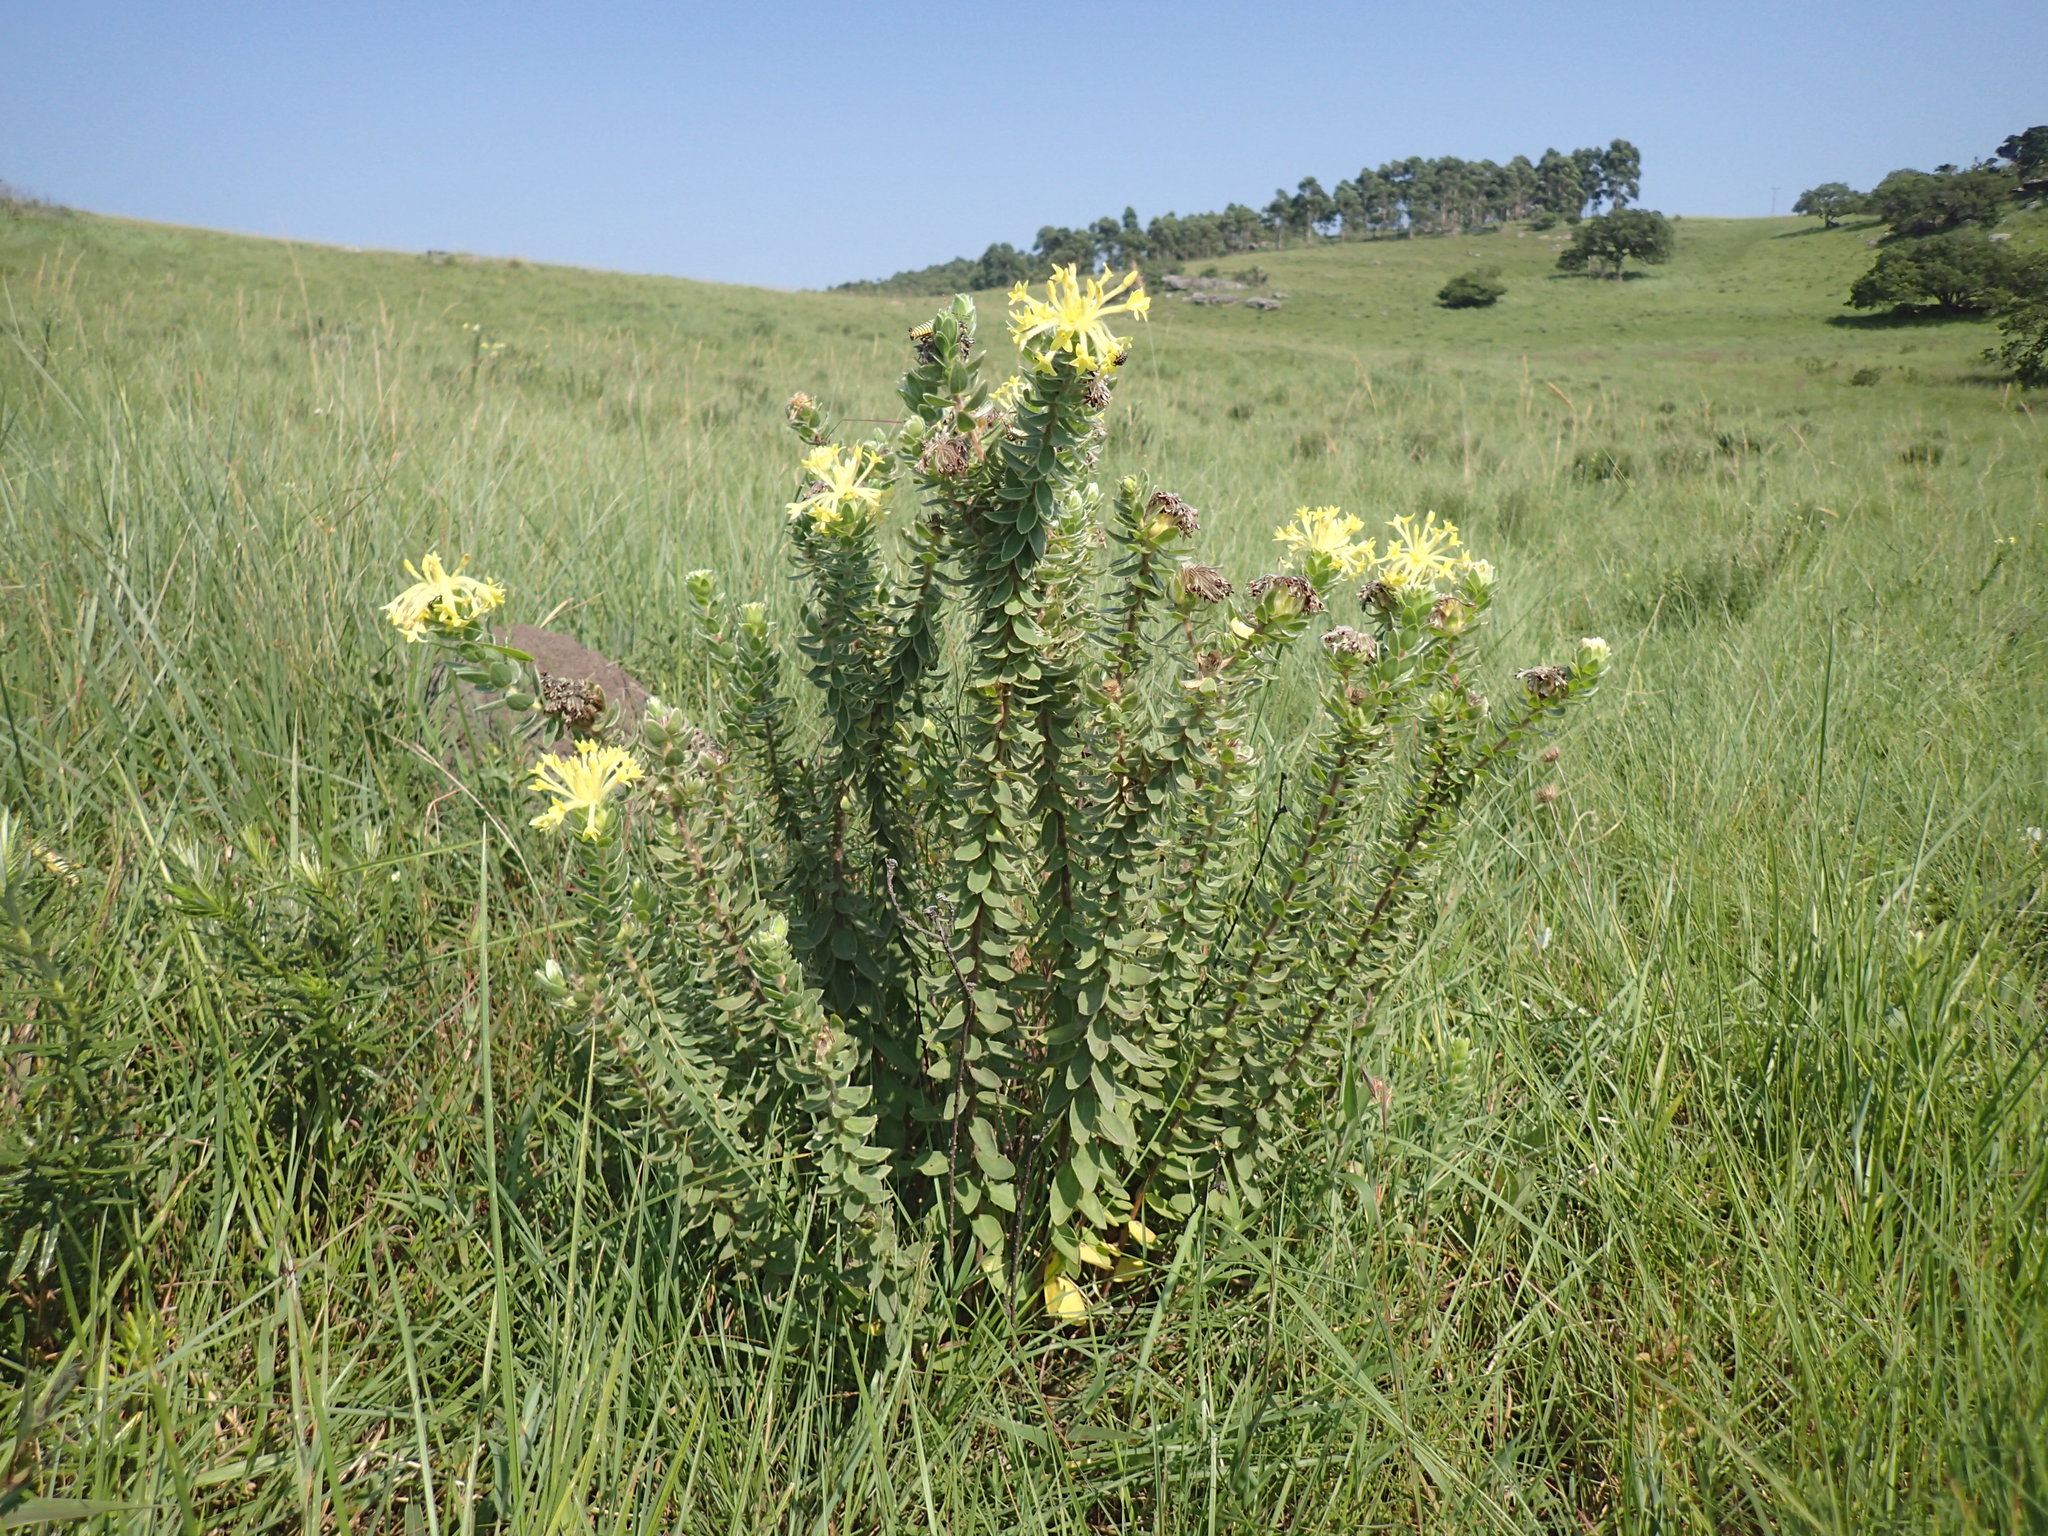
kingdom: Plantae
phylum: Tracheophyta
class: Magnoliopsida
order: Malvales
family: Thymelaeaceae
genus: Gnidia
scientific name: Gnidia anthylloides
